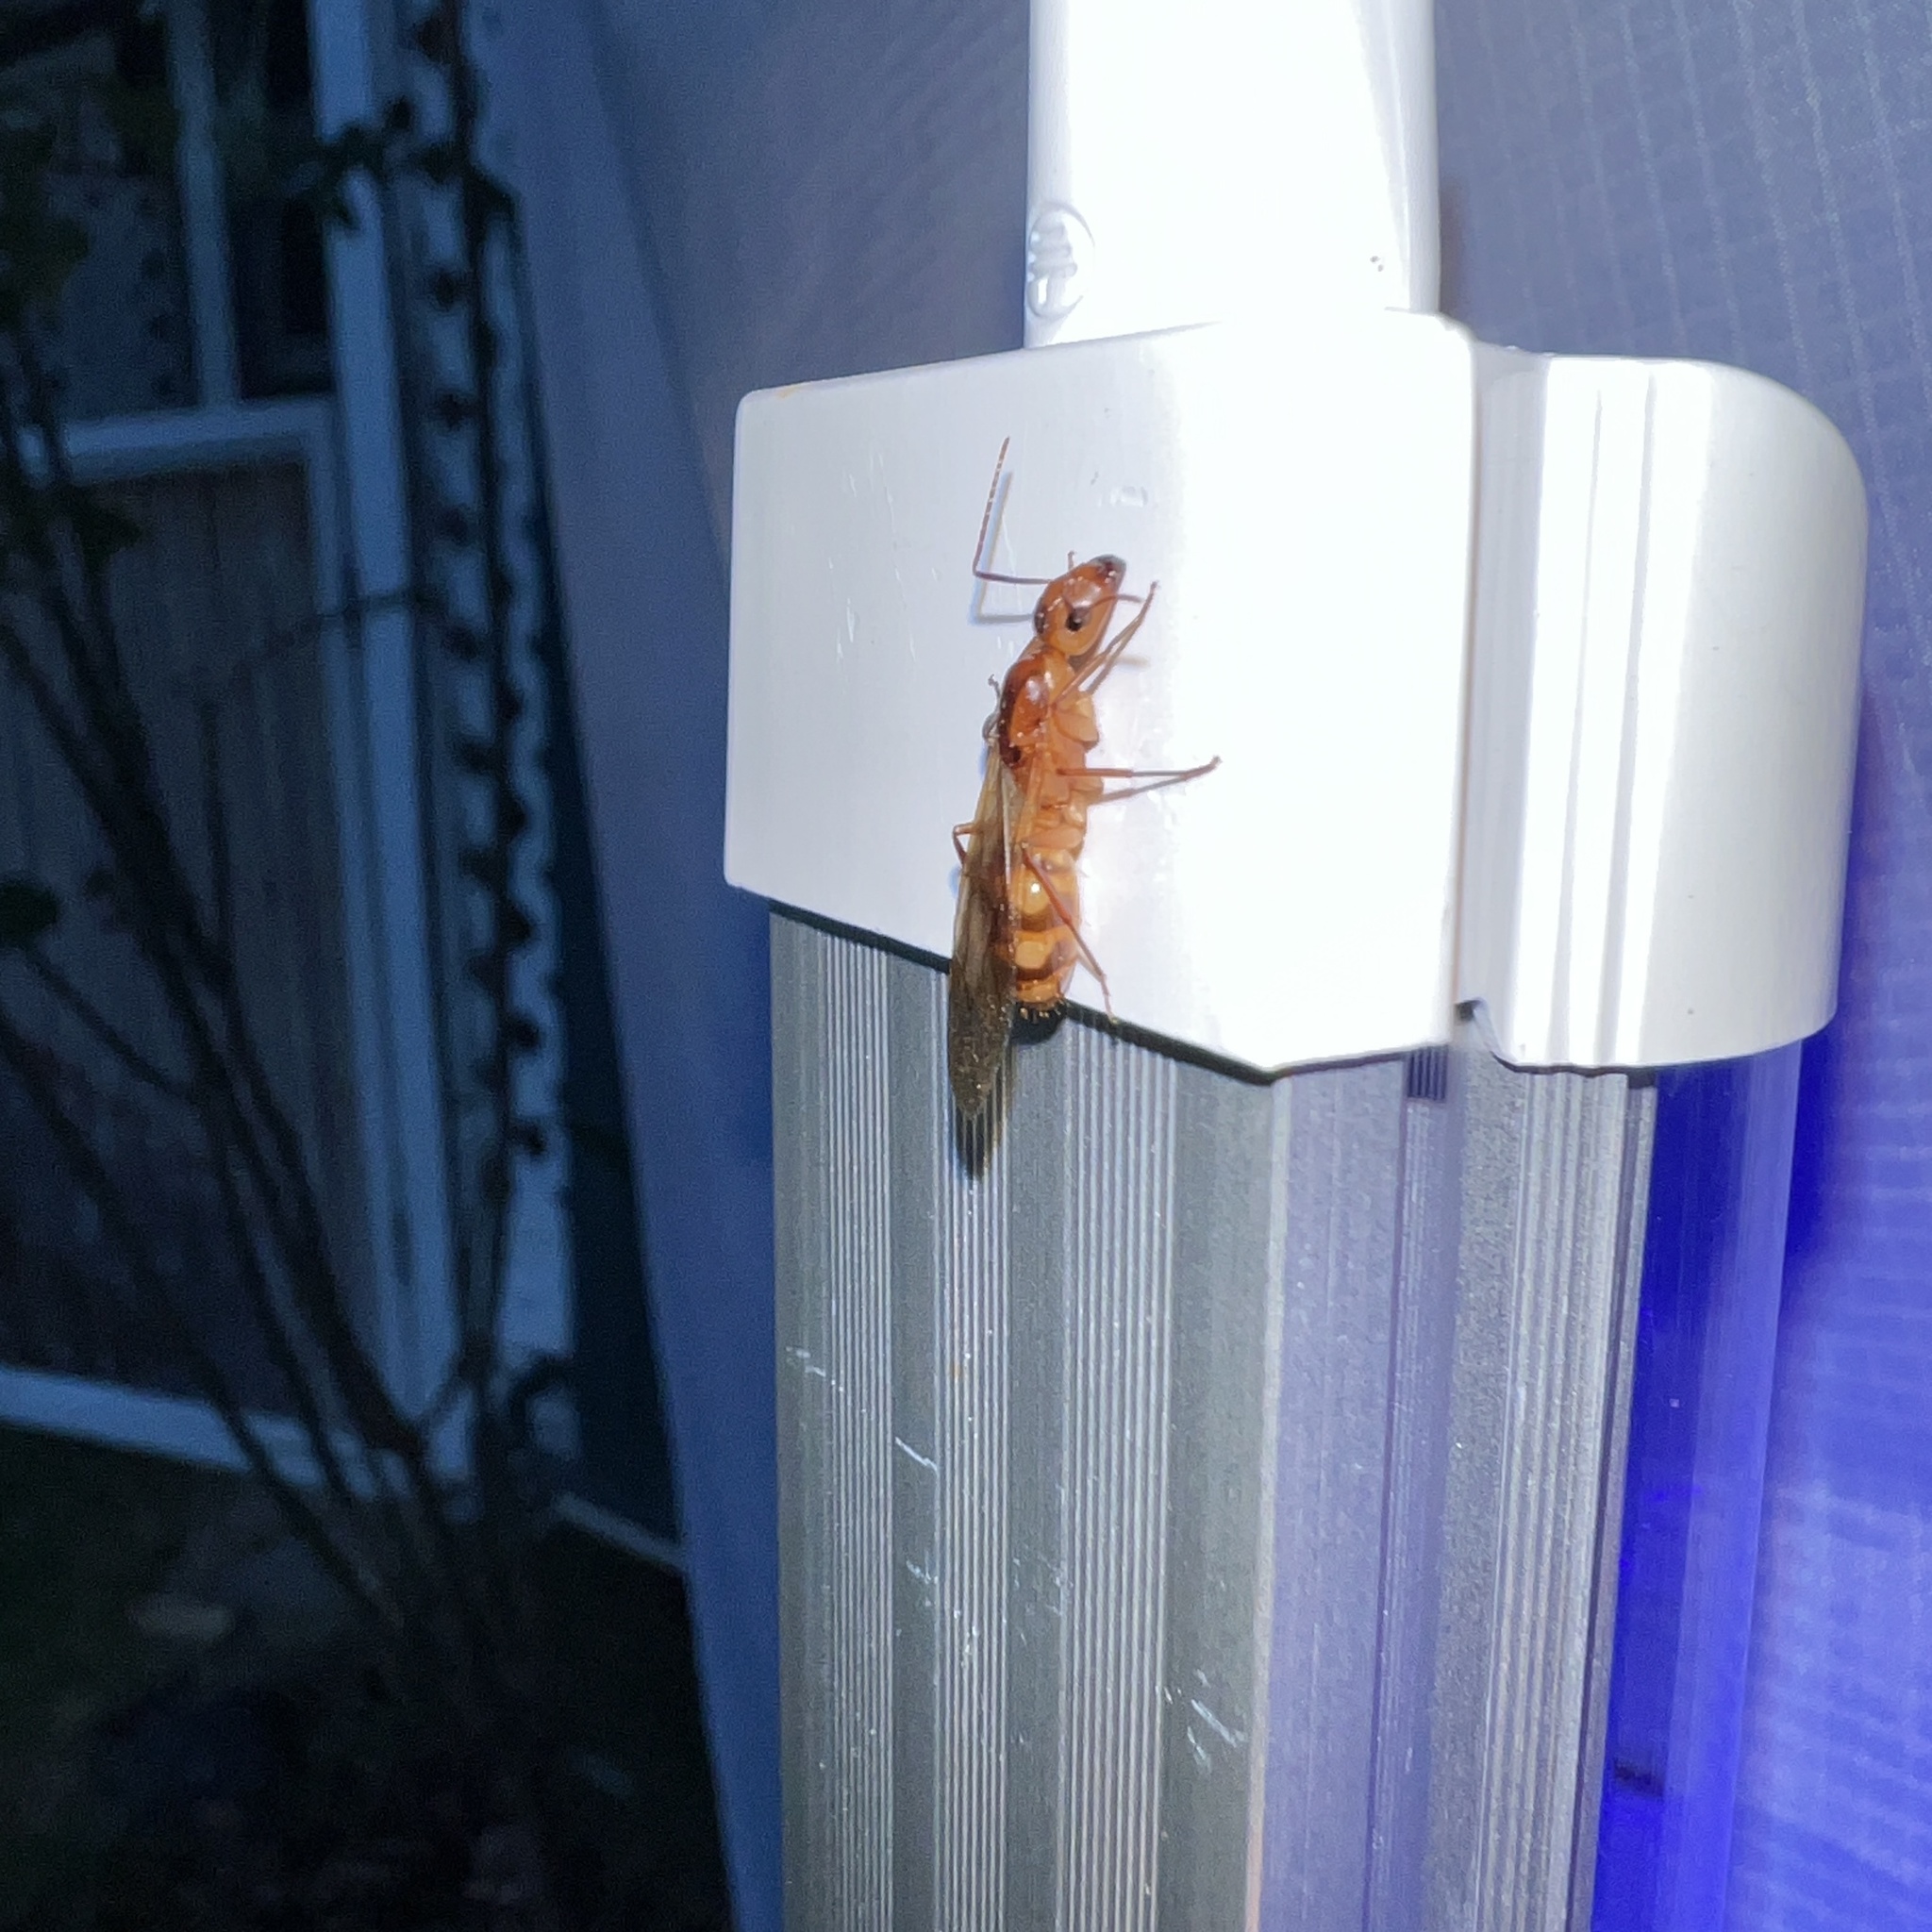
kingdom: Animalia
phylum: Arthropoda
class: Insecta
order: Hymenoptera
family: Formicidae
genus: Camponotus
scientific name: Camponotus variegatus
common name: Hawaiian carpenter ant
